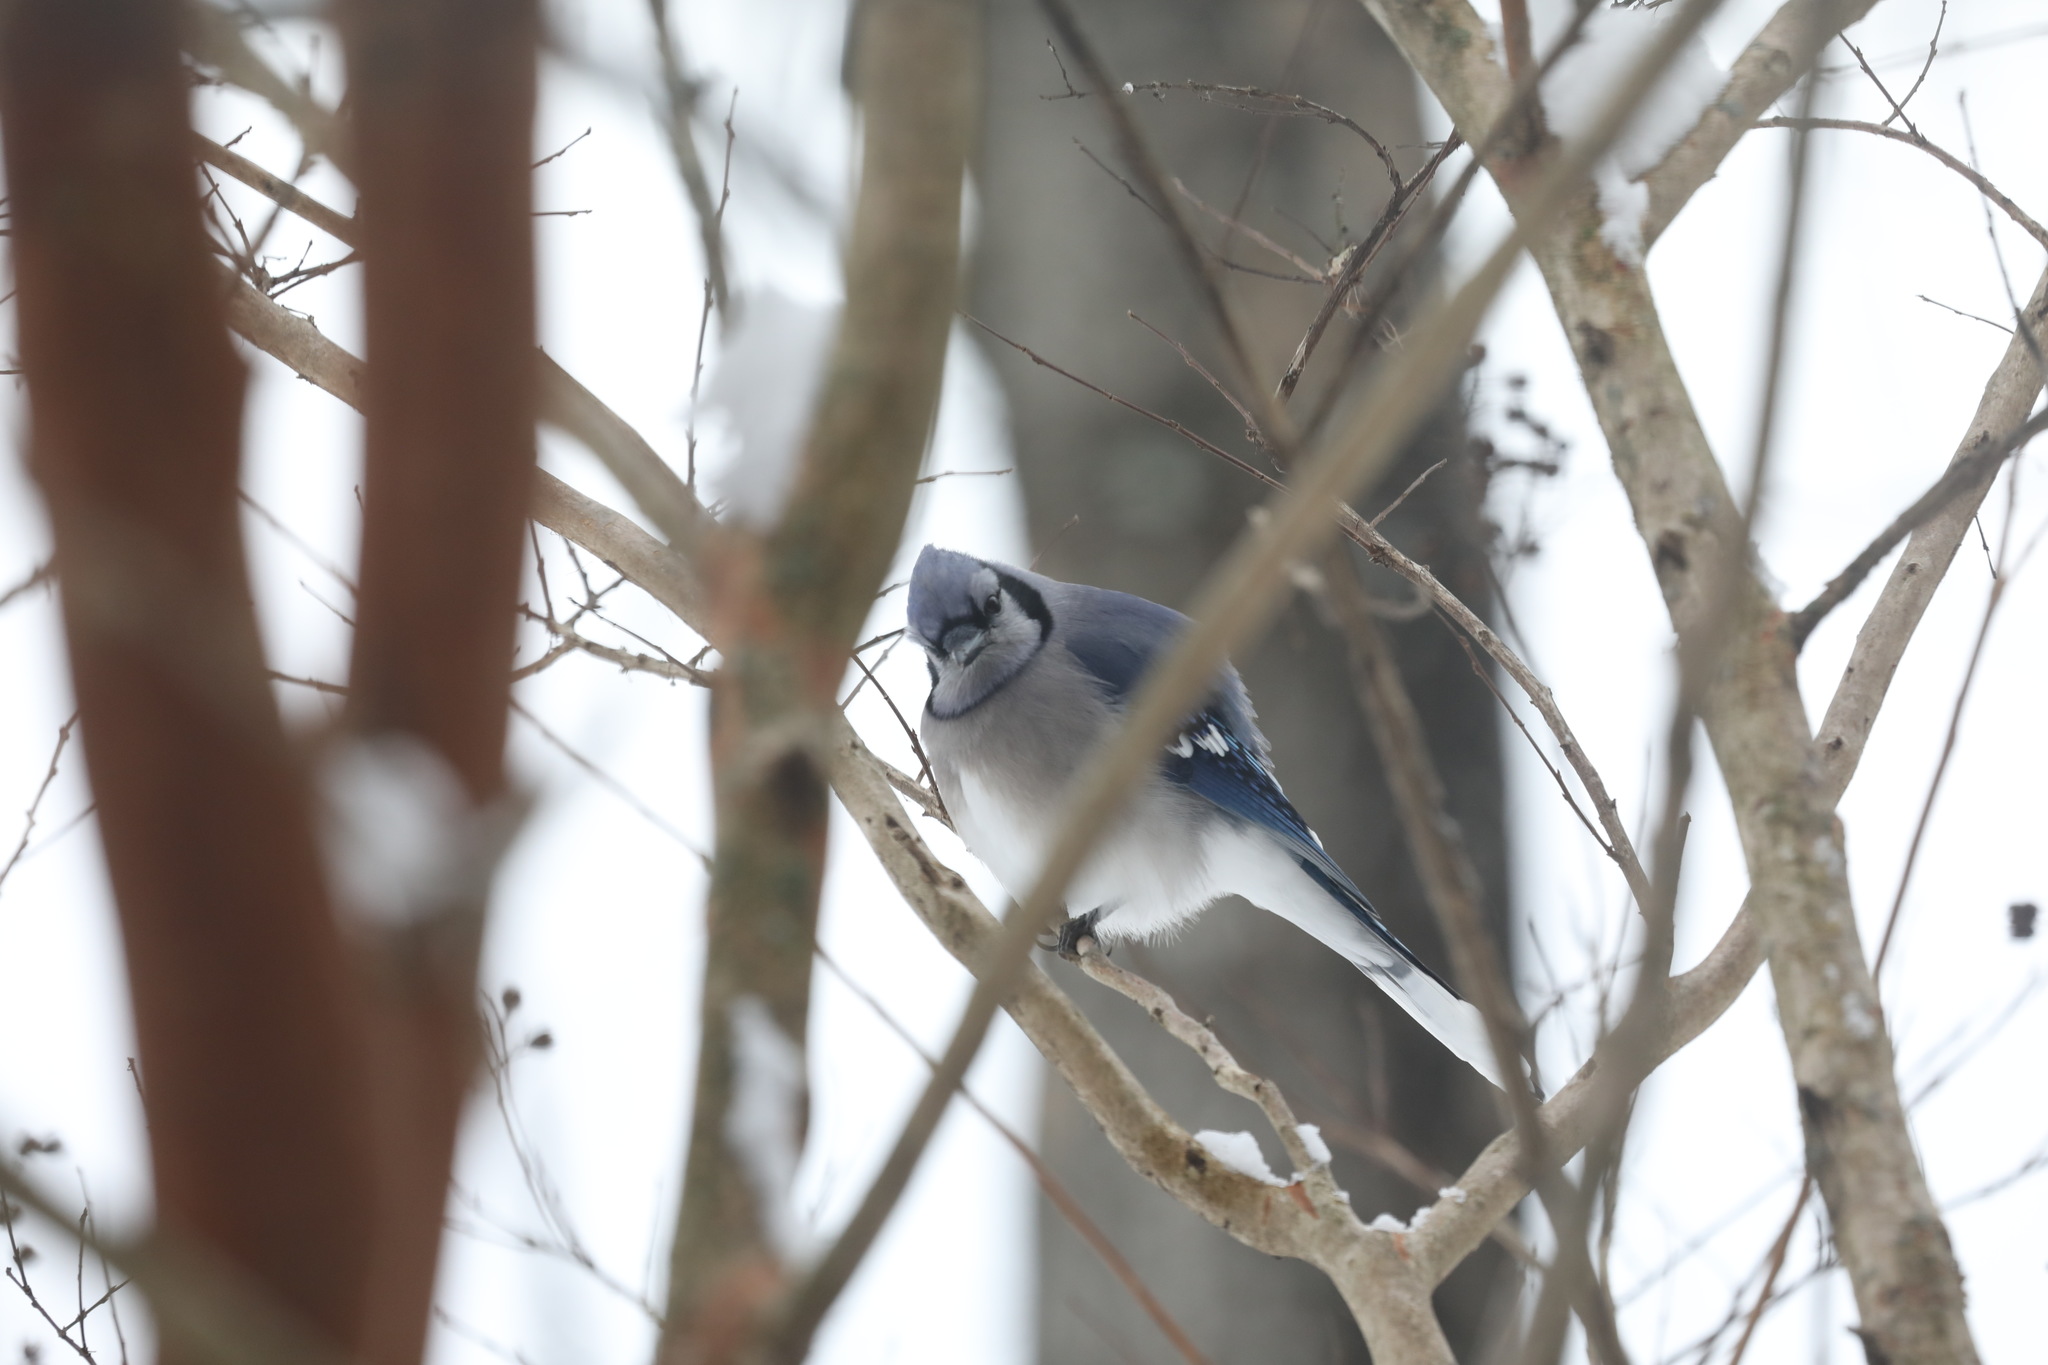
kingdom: Animalia
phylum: Chordata
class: Aves
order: Passeriformes
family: Corvidae
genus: Cyanocitta
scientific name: Cyanocitta cristata
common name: Blue jay
